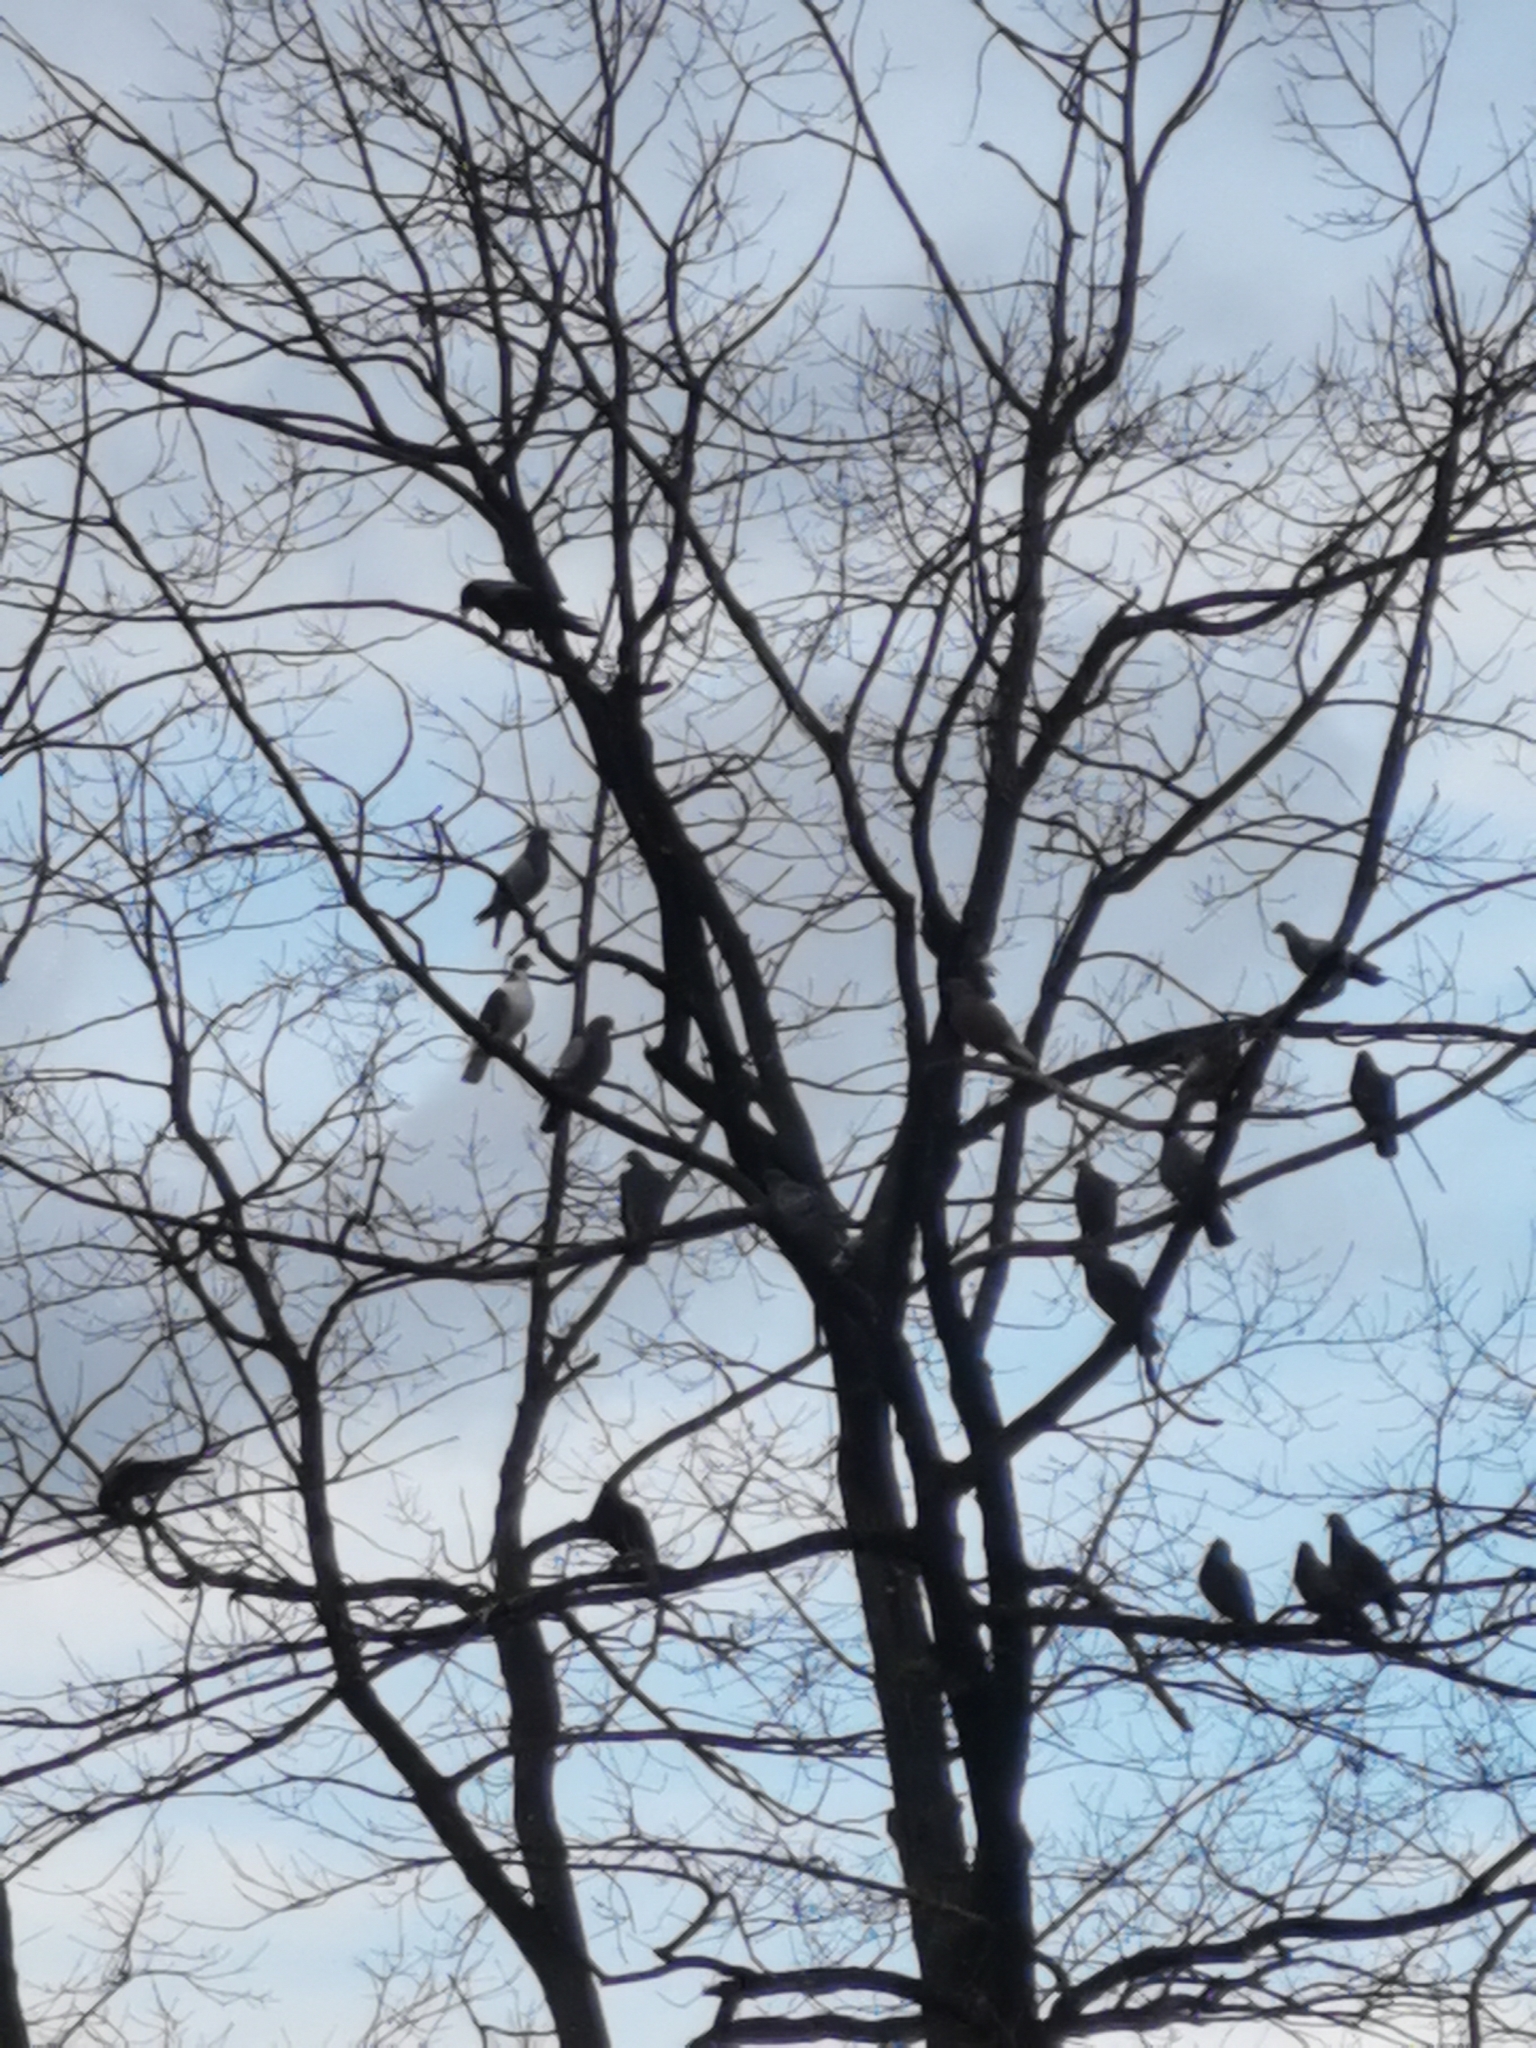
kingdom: Animalia
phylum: Chordata
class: Aves
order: Columbiformes
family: Columbidae
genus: Columba
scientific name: Columba livia
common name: Rock pigeon
